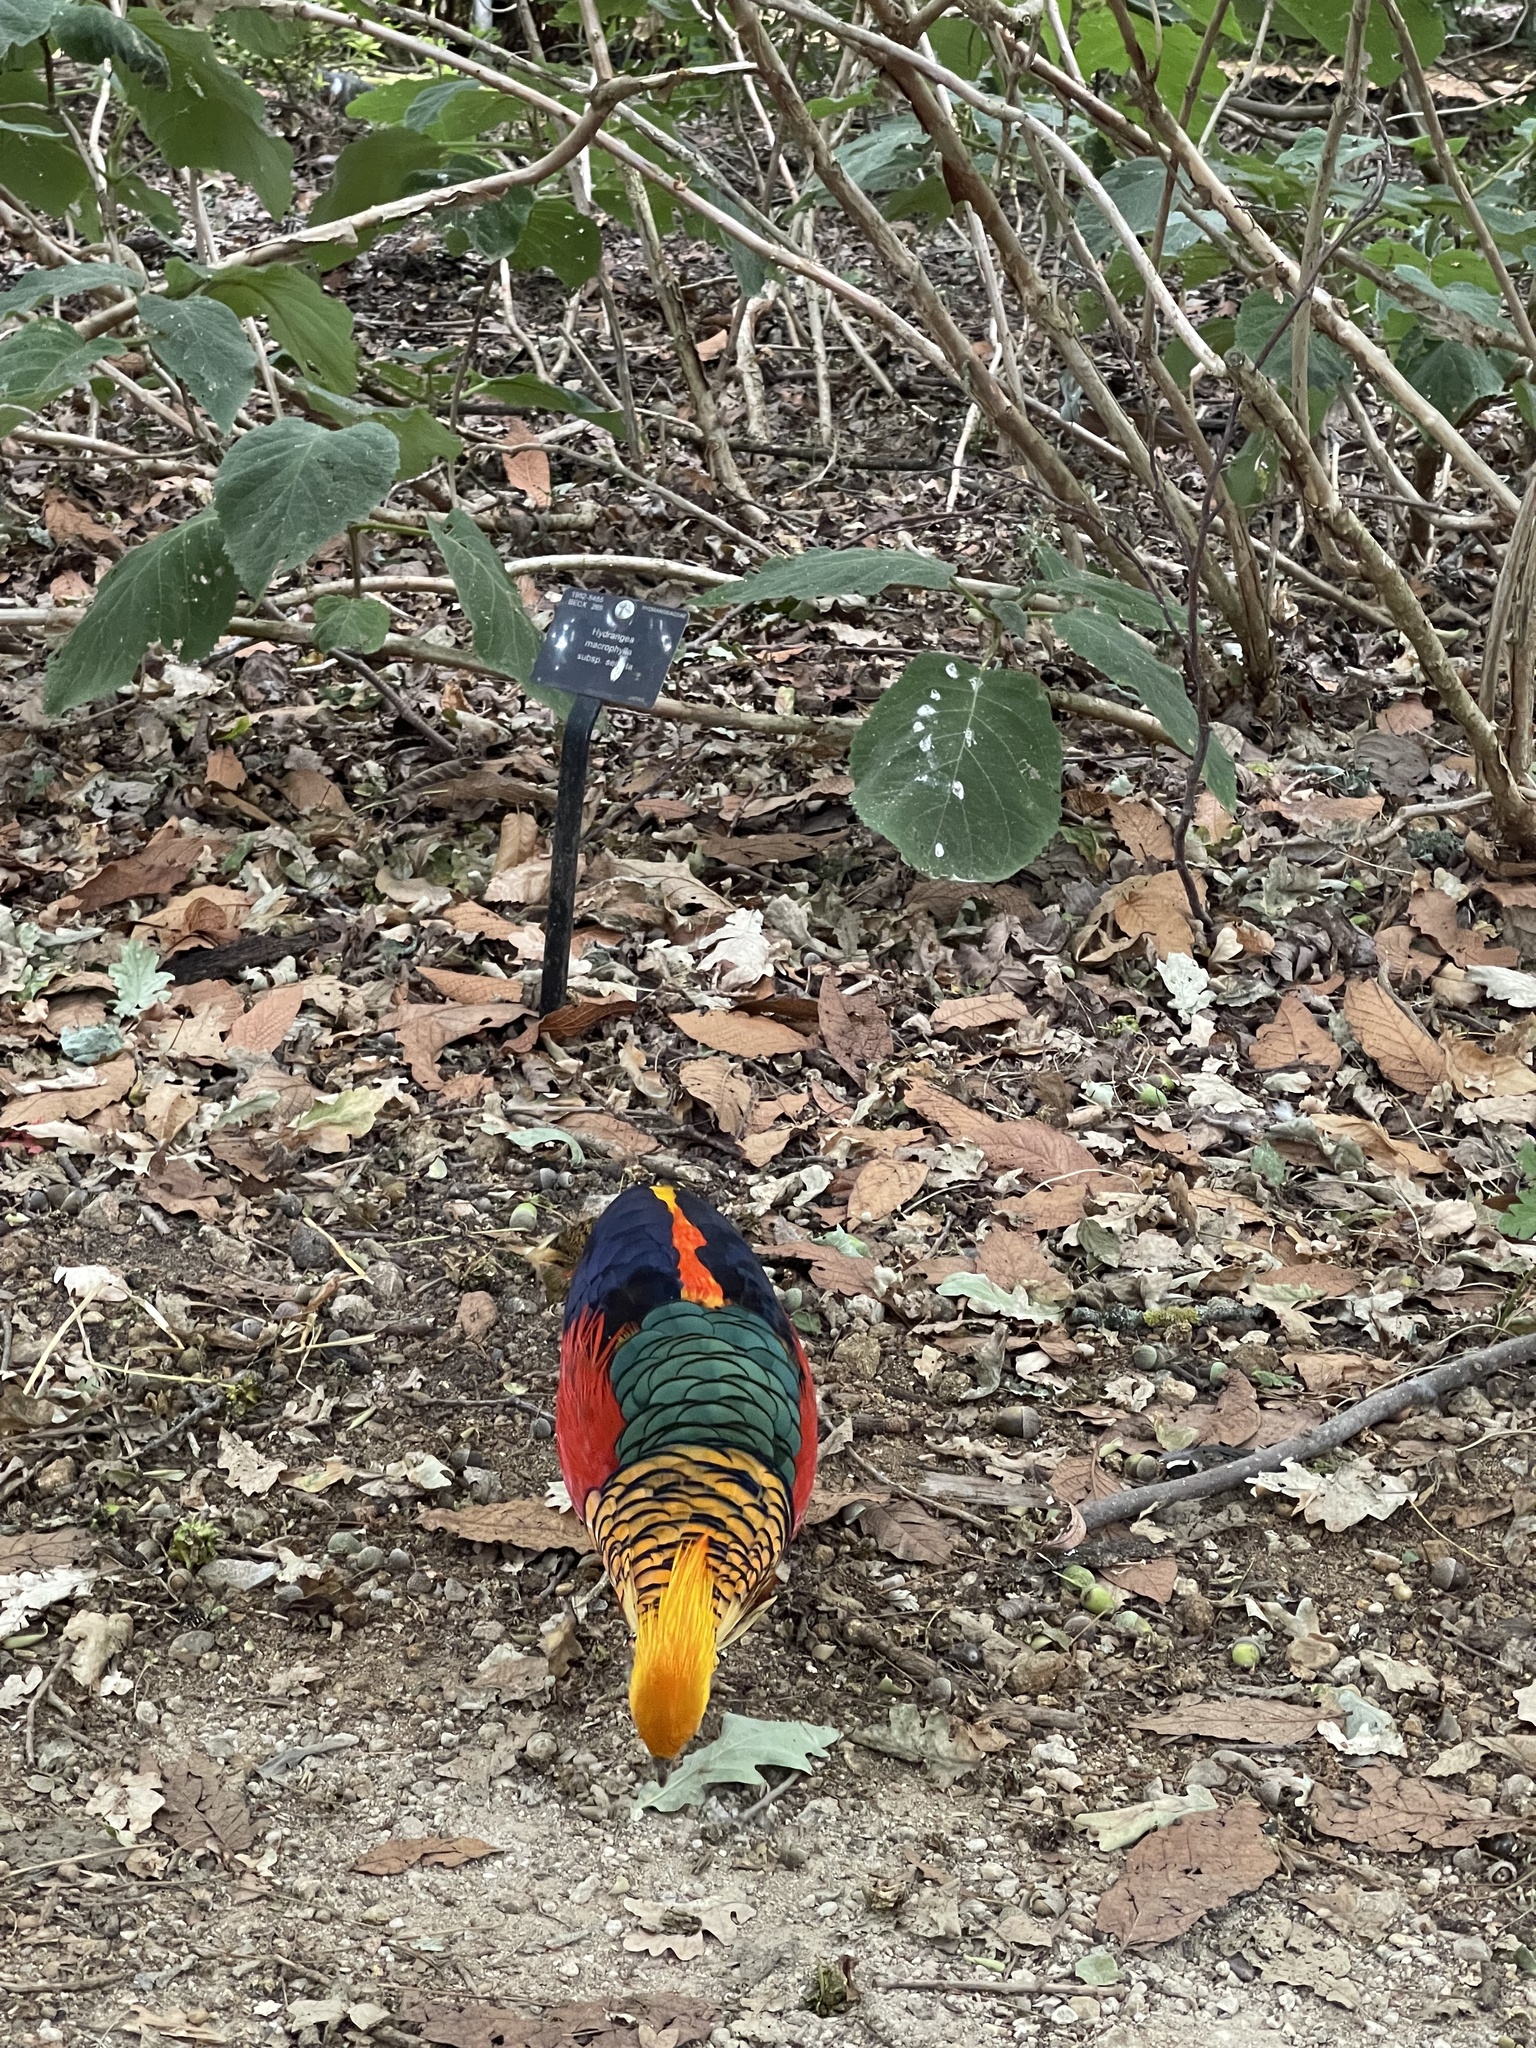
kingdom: Animalia
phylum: Chordata
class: Aves
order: Galliformes
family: Phasianidae
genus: Chrysolophus
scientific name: Chrysolophus pictus
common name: Golden pheasant
